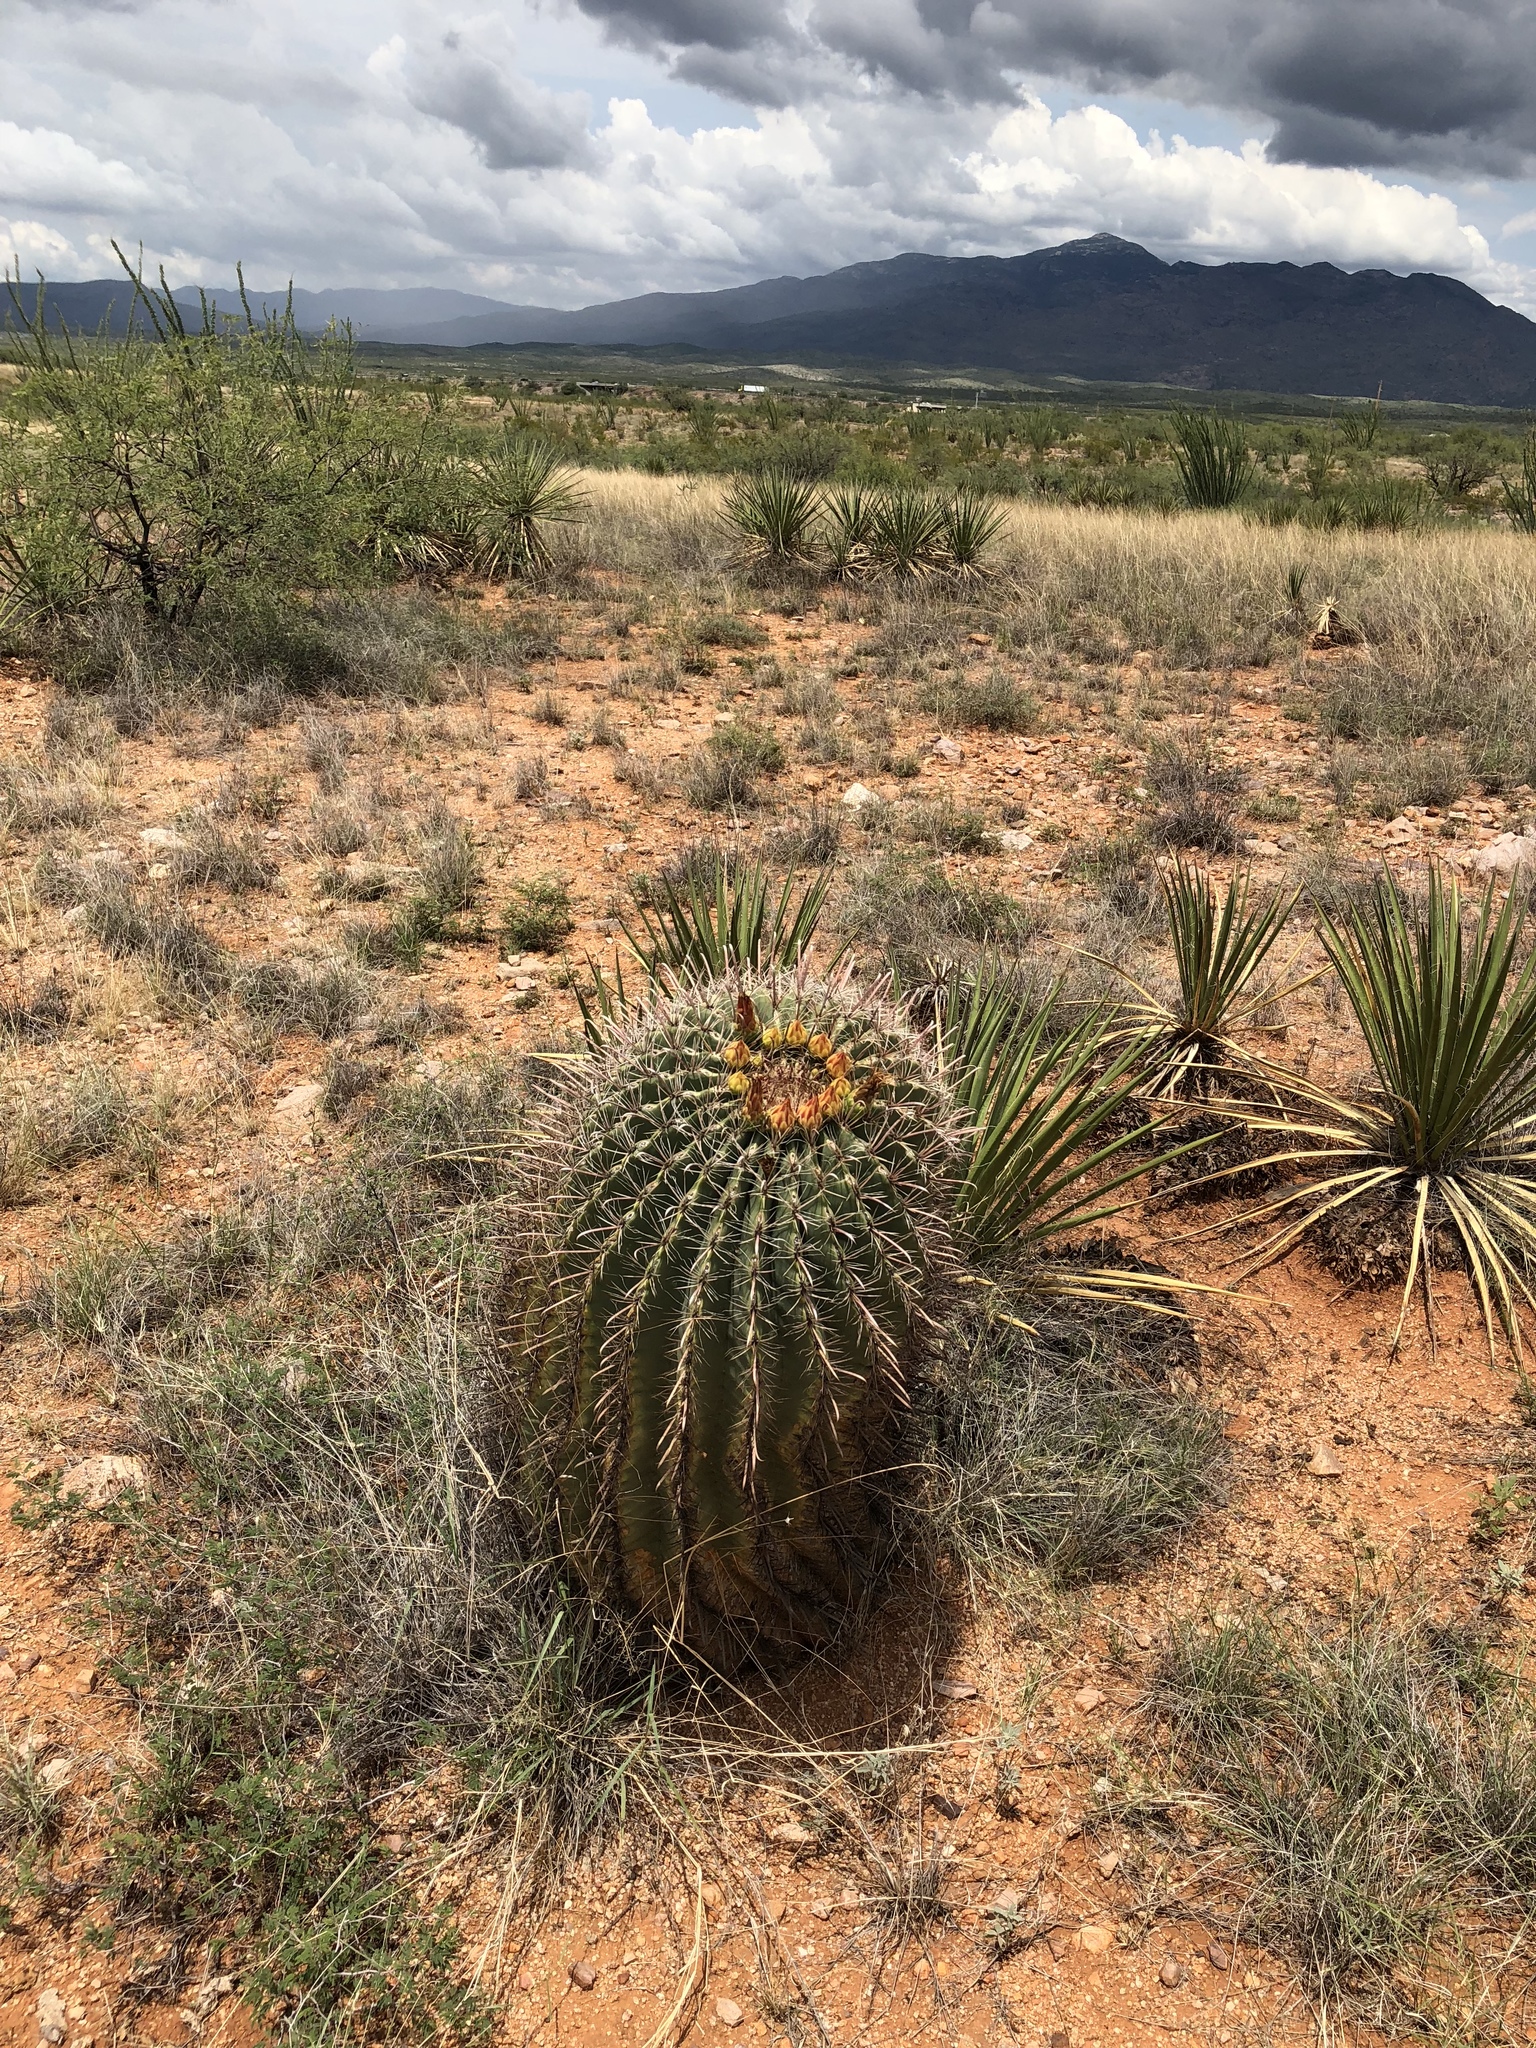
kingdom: Plantae
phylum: Tracheophyta
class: Magnoliopsida
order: Caryophyllales
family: Cactaceae
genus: Ferocactus
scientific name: Ferocactus wislizeni
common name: Candy barrel cactus
